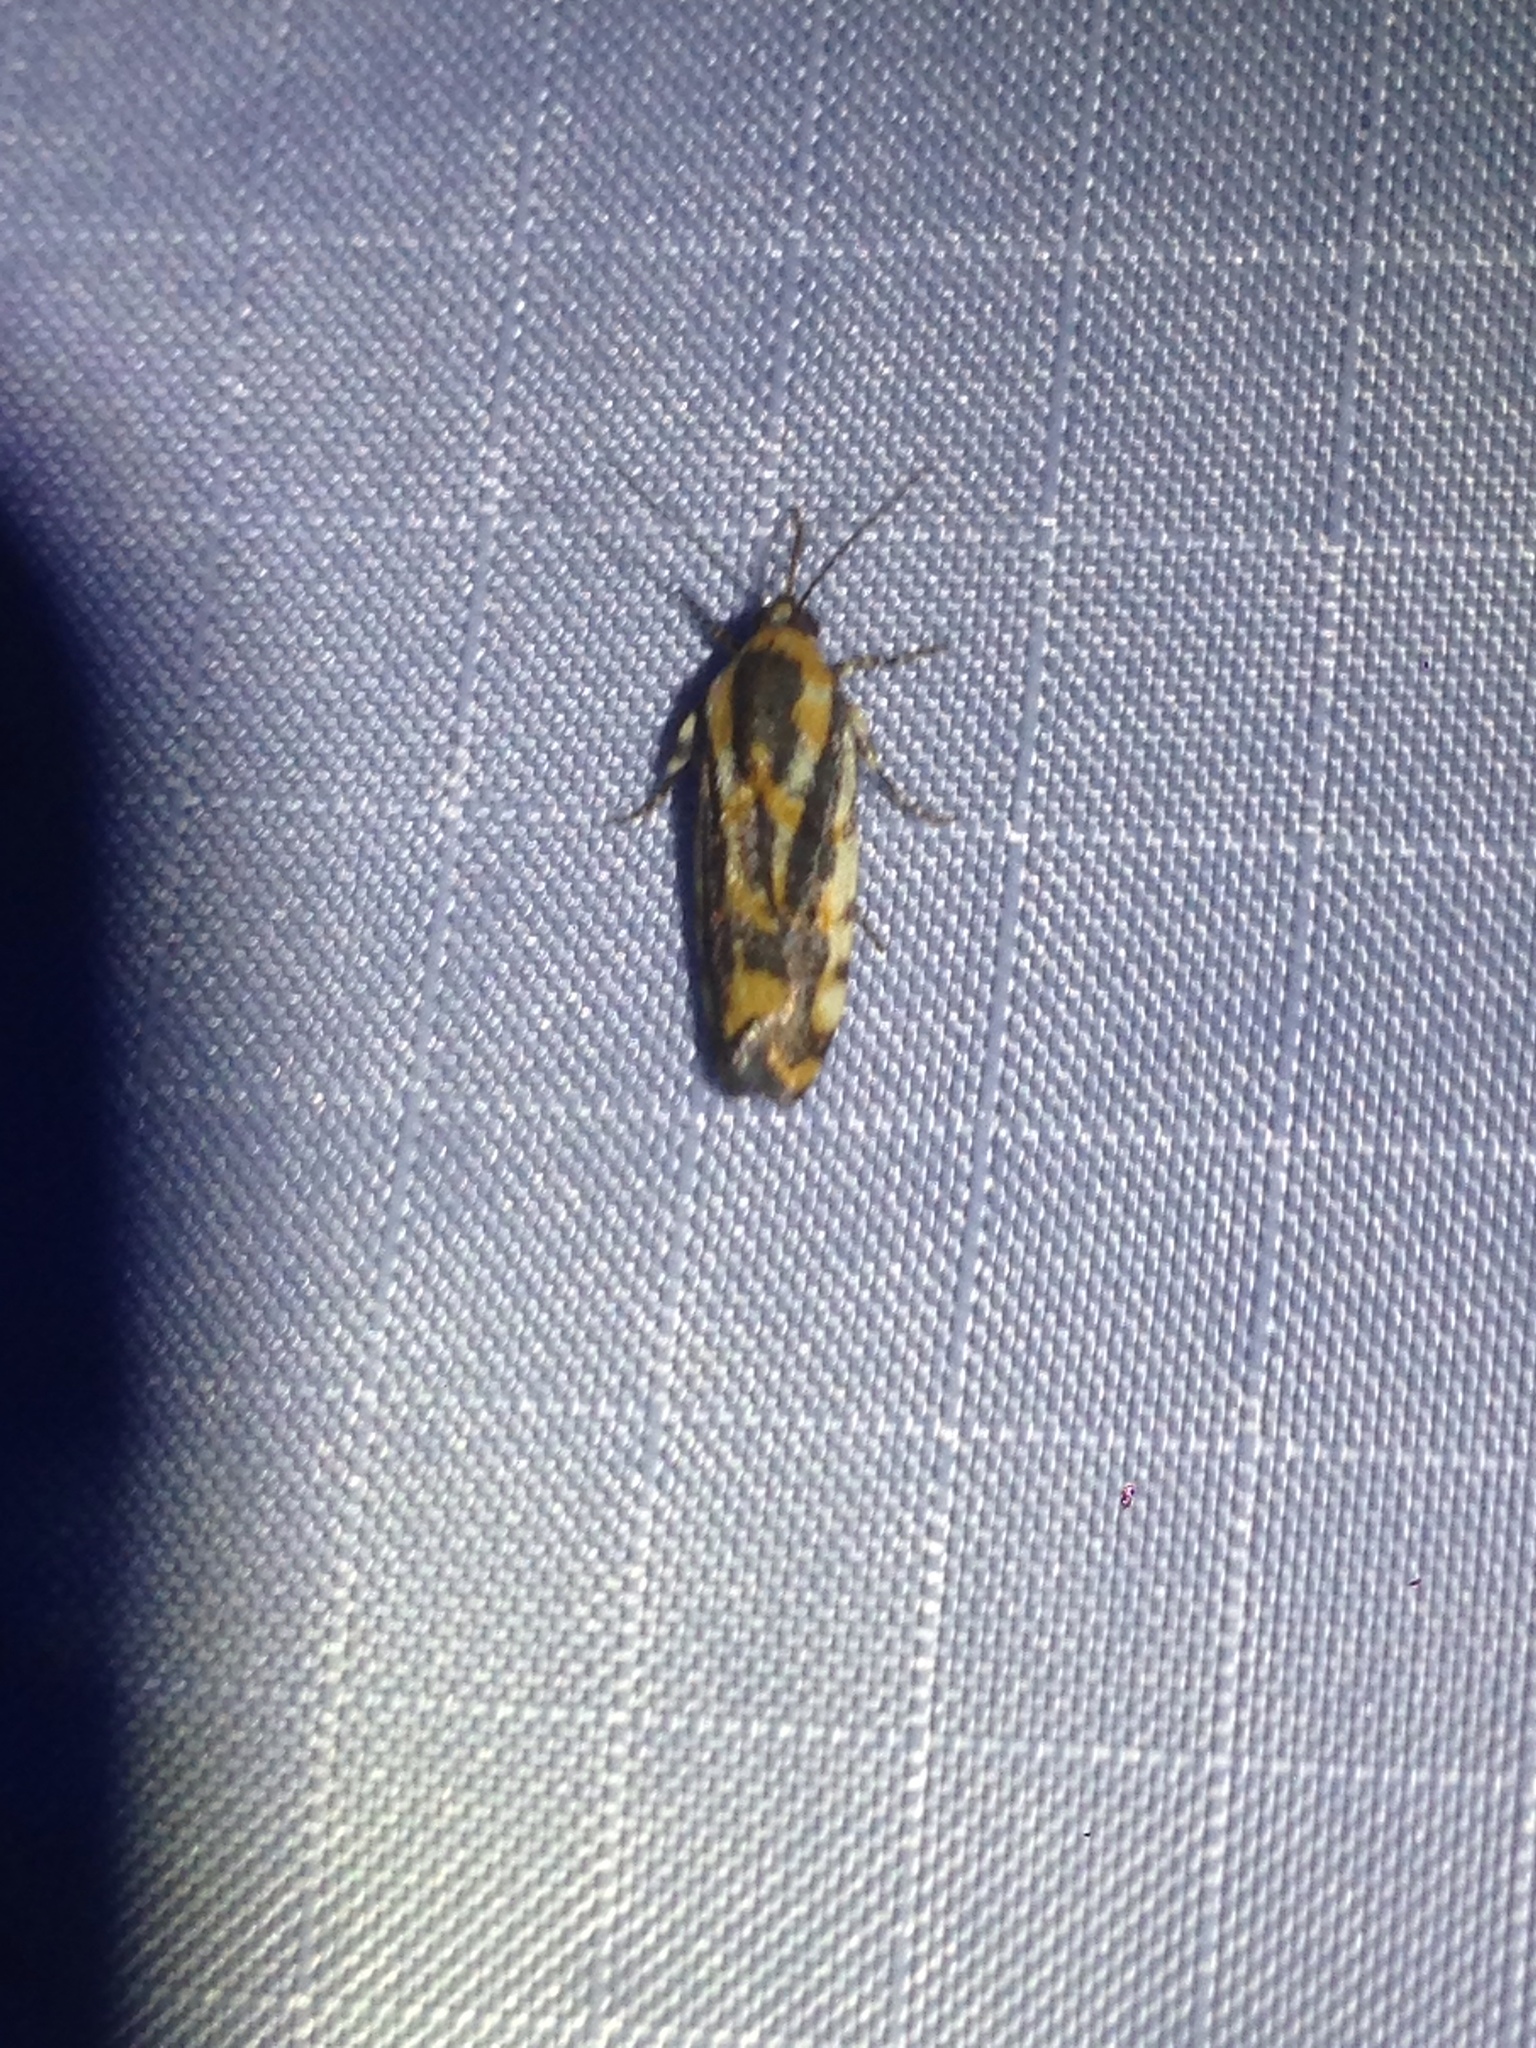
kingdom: Animalia
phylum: Arthropoda
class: Insecta
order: Lepidoptera
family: Noctuidae
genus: Acontia
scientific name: Acontia leo
